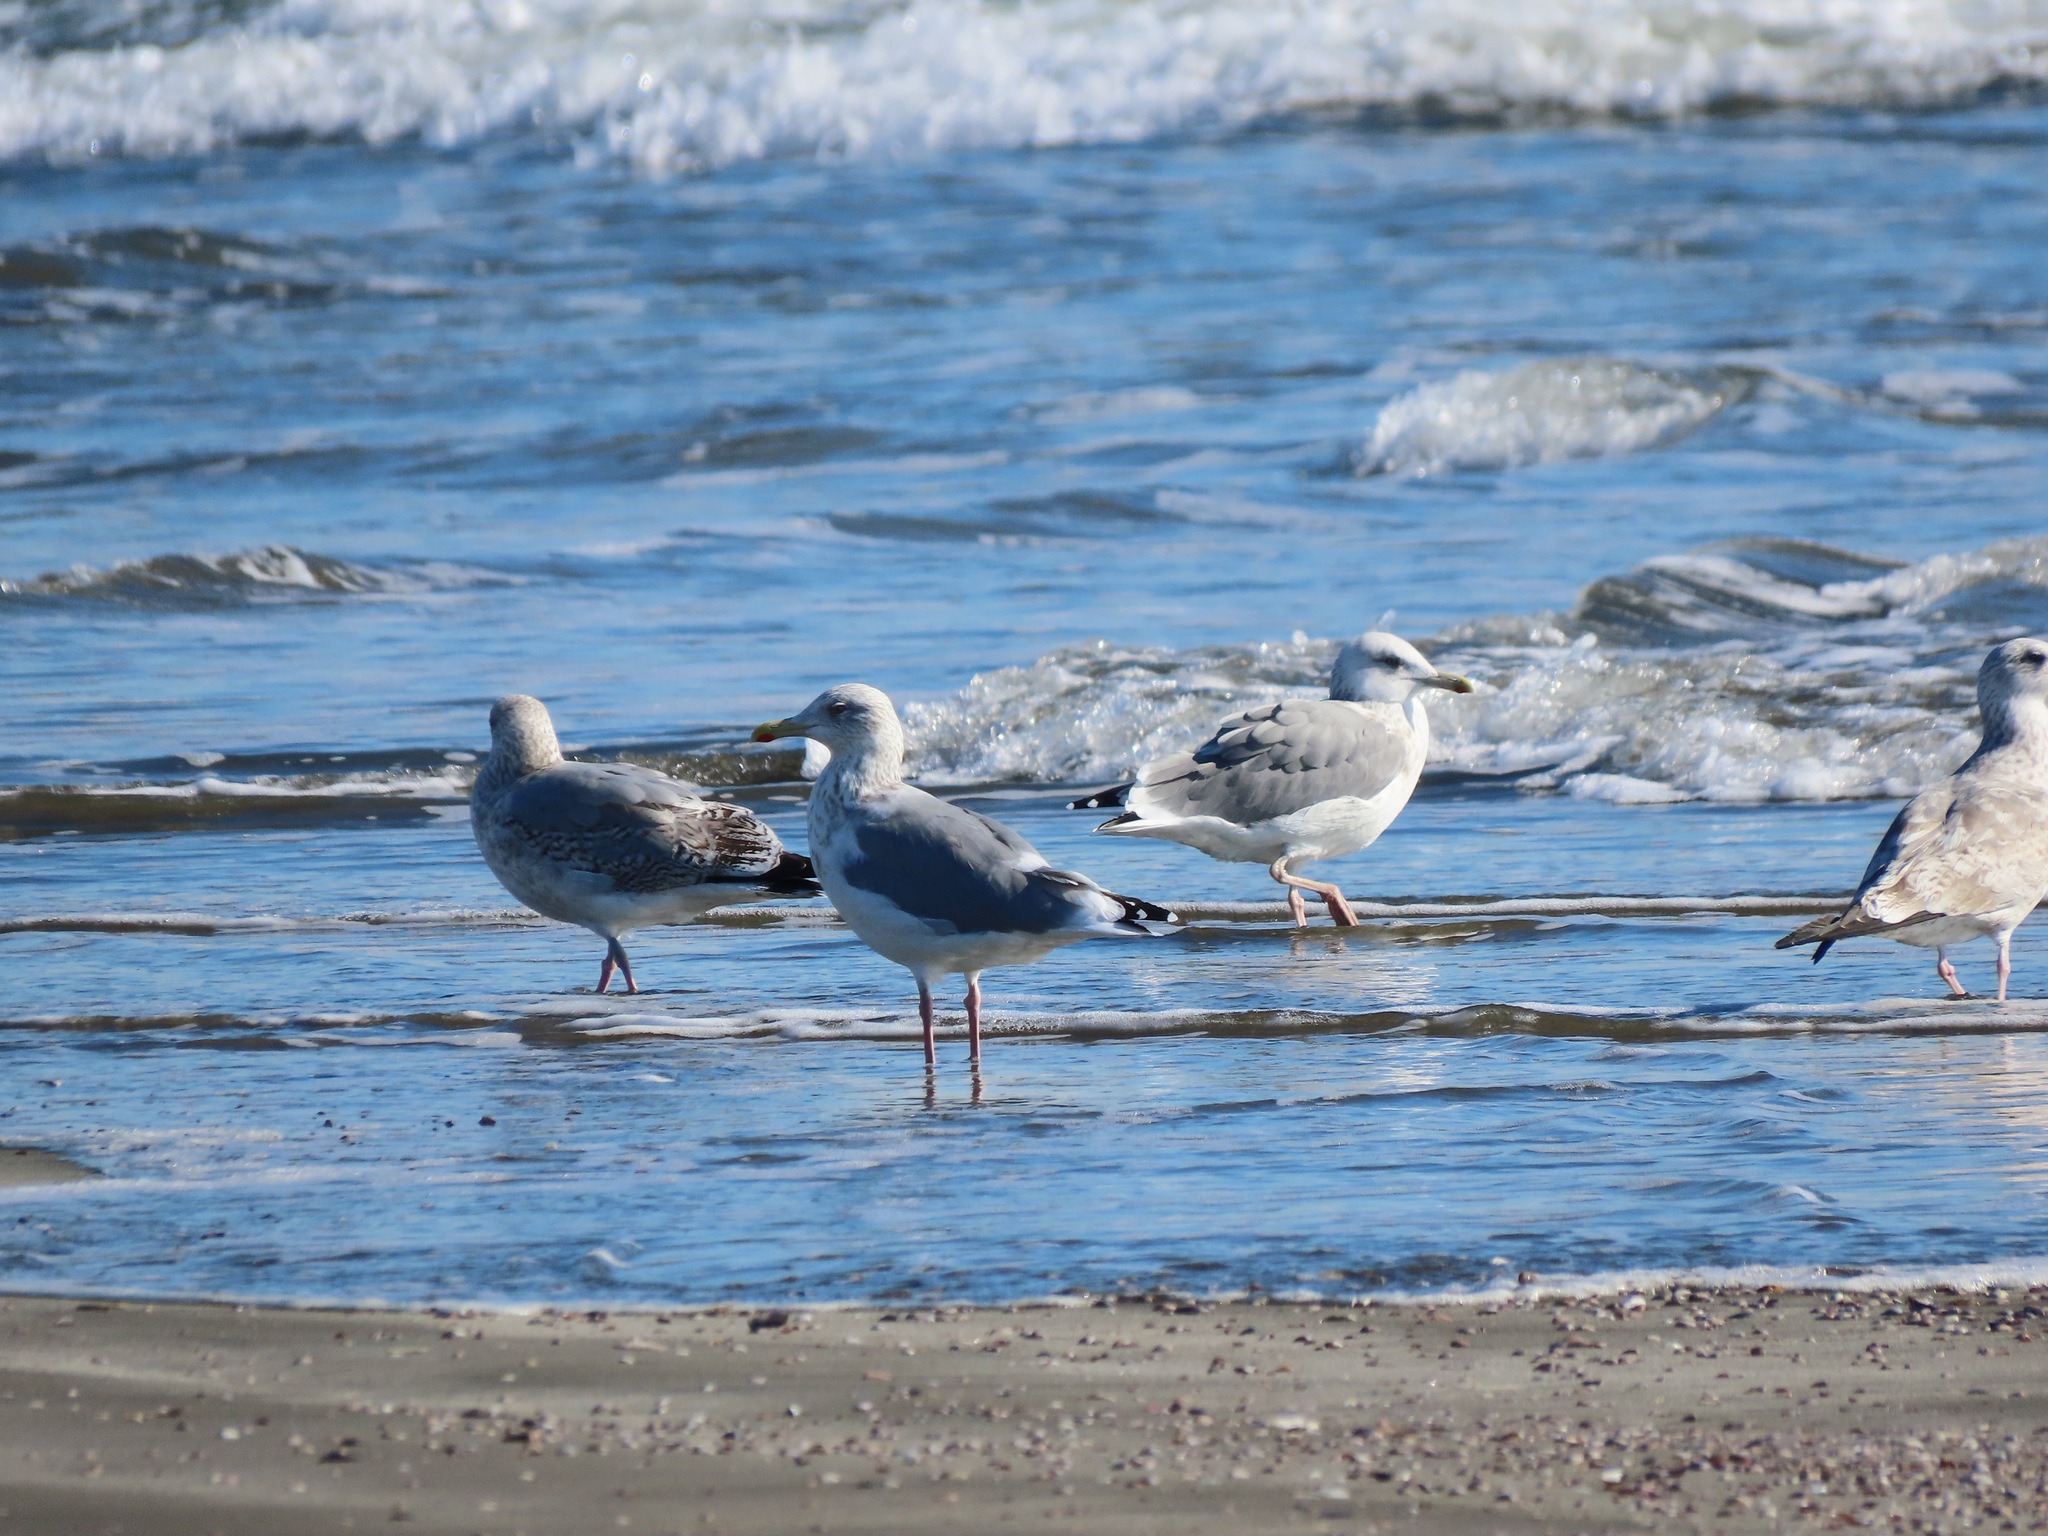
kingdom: Animalia
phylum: Chordata
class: Aves
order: Charadriiformes
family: Laridae
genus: Larus
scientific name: Larus vegae
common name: Vega gull
